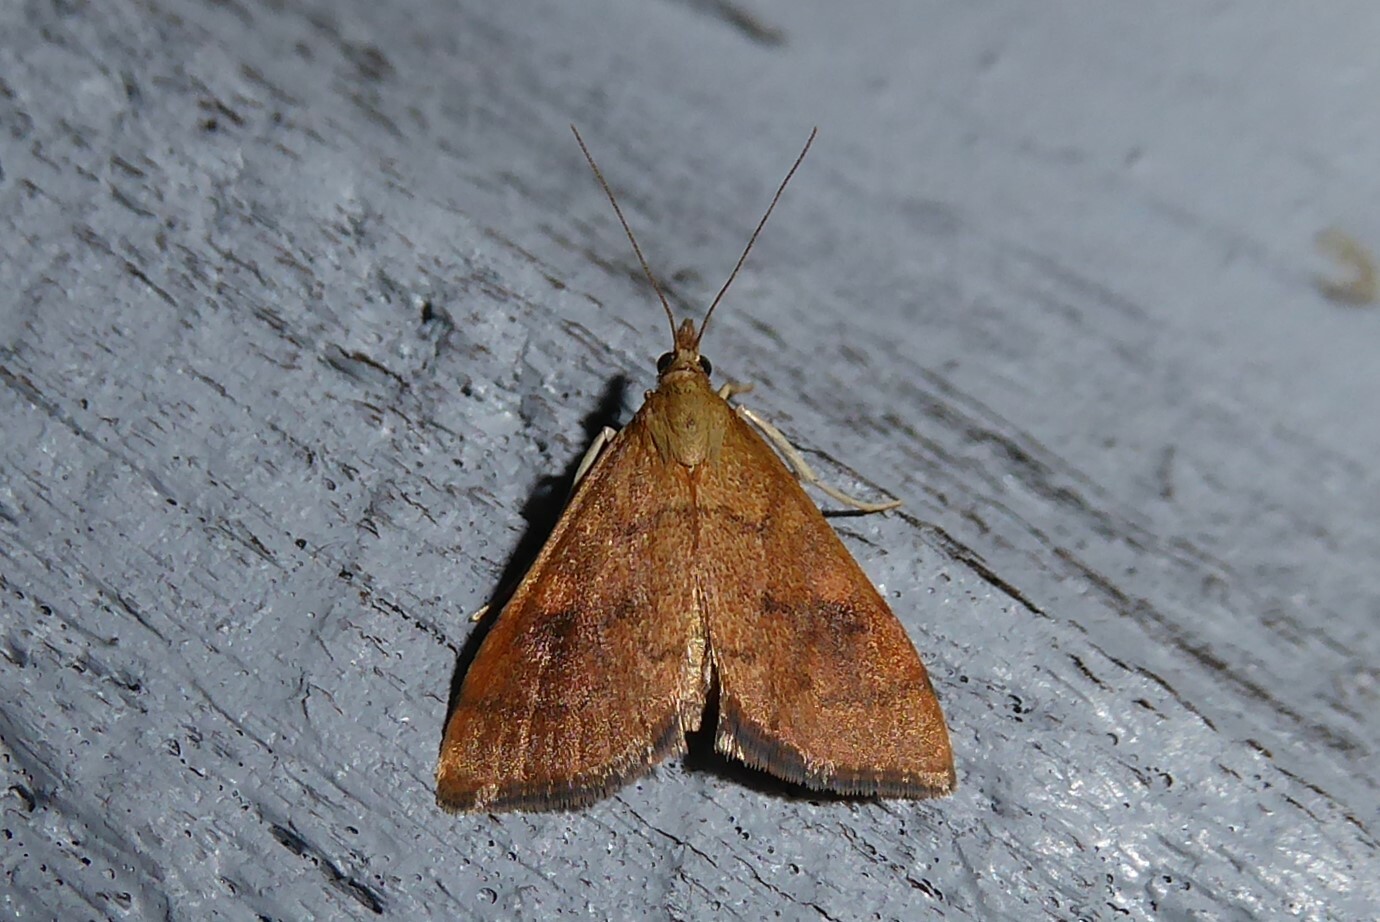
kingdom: Animalia
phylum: Arthropoda
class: Insecta
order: Lepidoptera
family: Crambidae
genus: Udea
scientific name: Udea Mnesictena flavidalis
